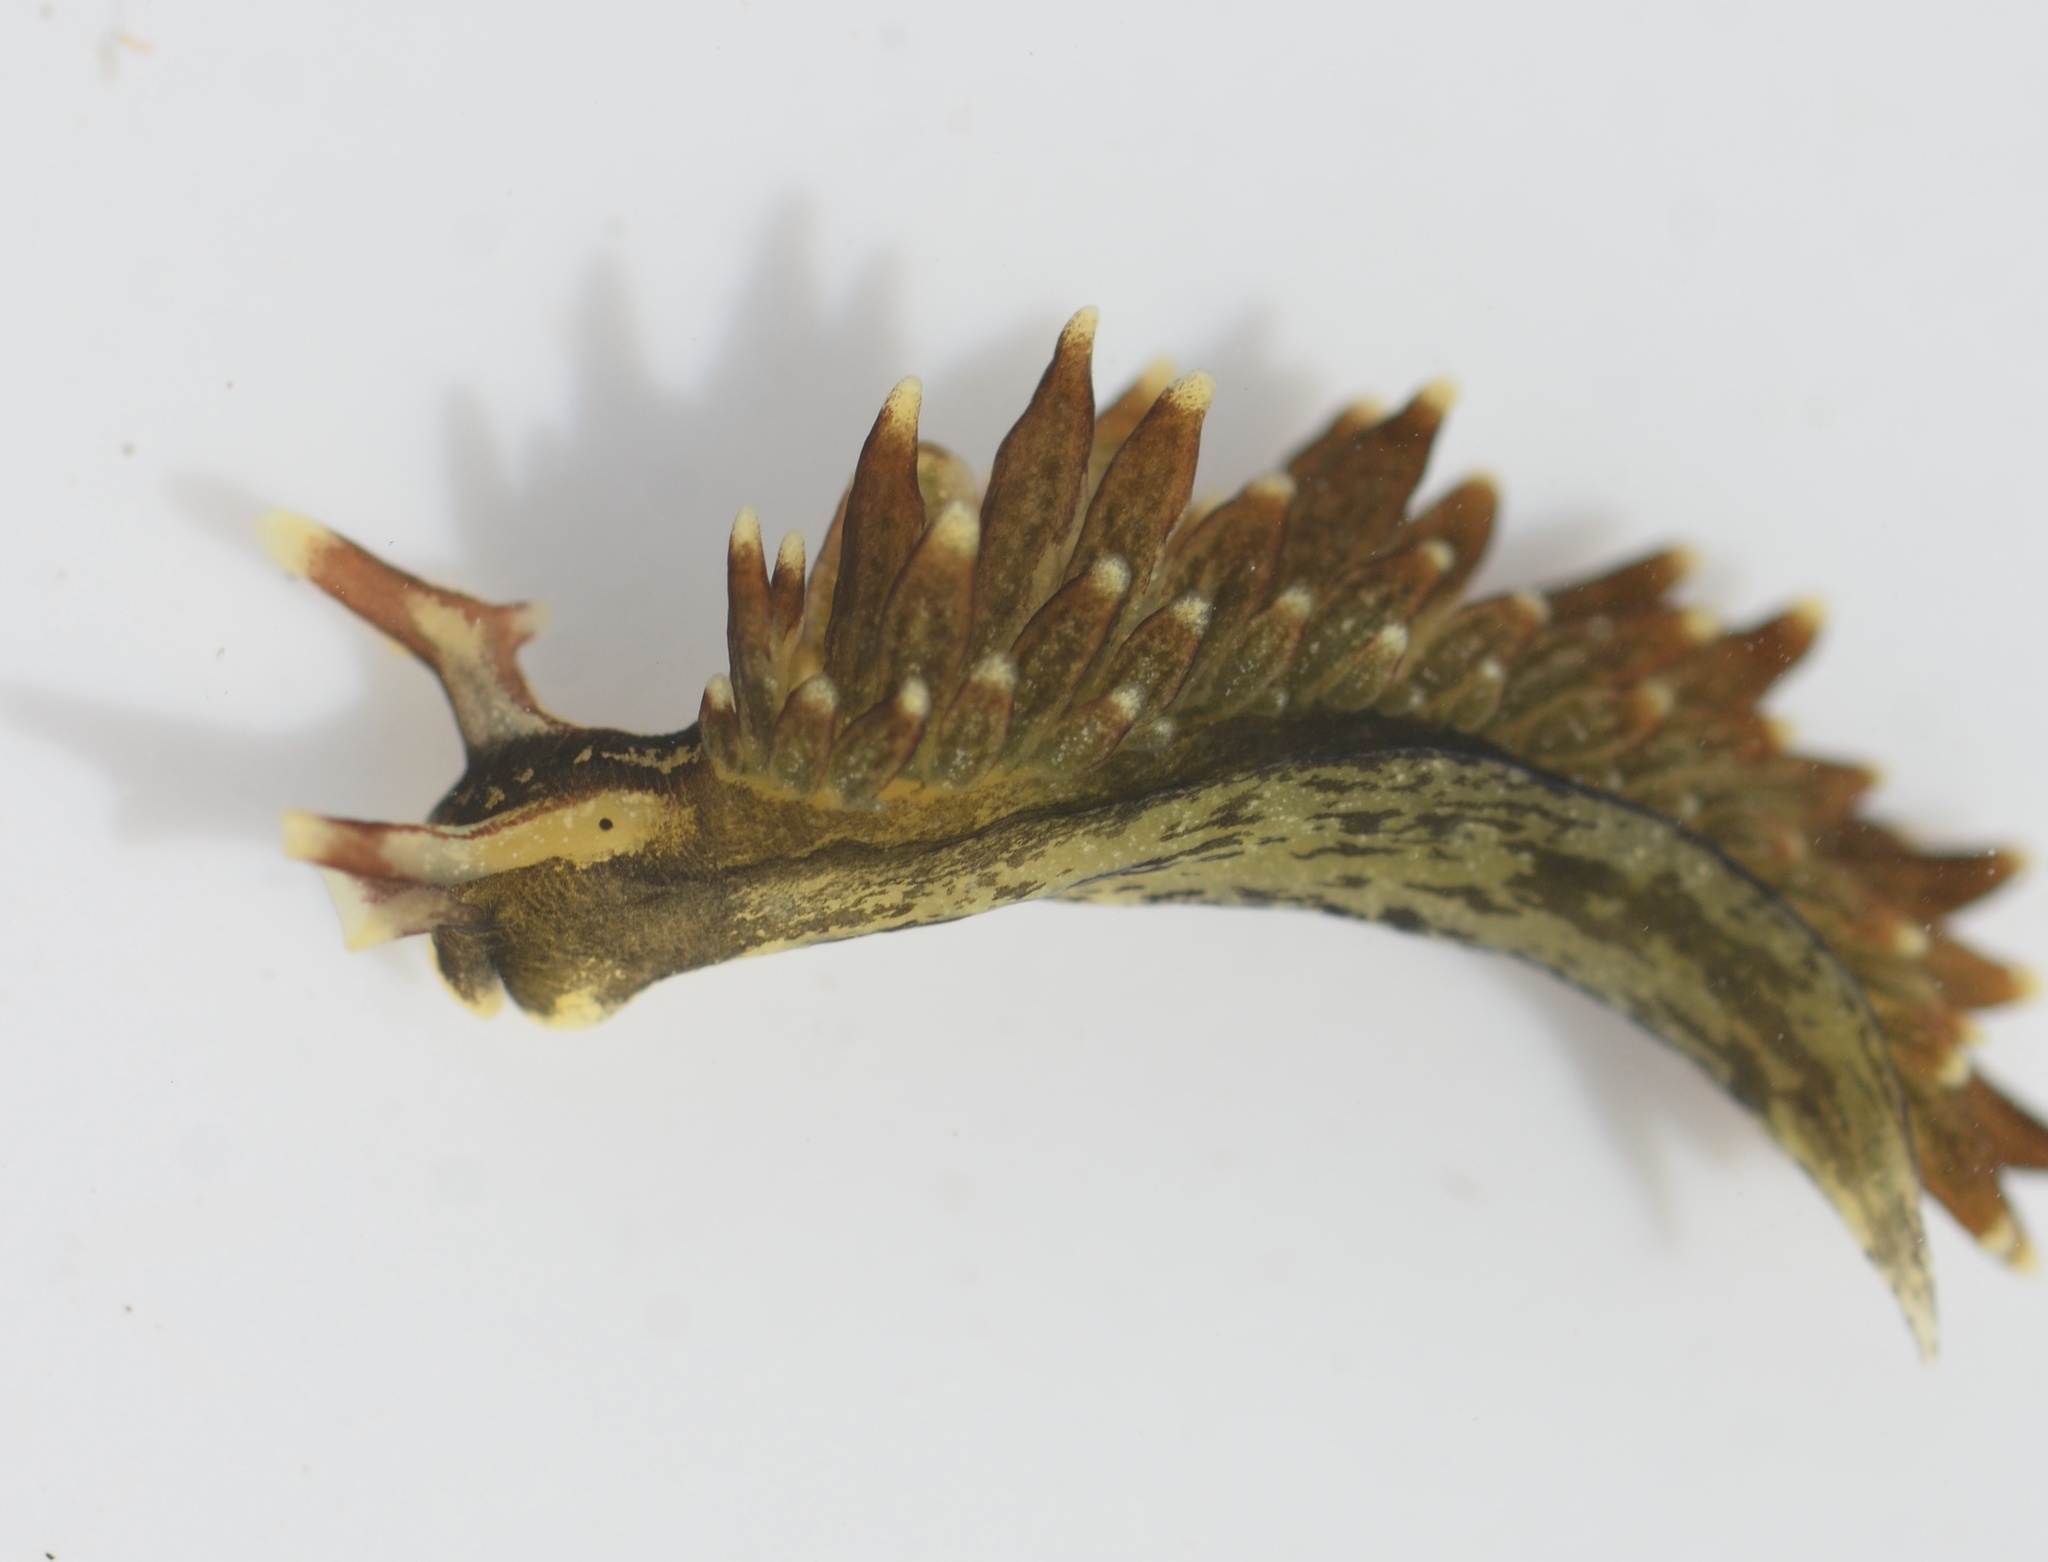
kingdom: Animalia
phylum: Mollusca
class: Gastropoda
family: Hermaeidae
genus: Aplysiopsis
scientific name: Aplysiopsis enteromorphae
